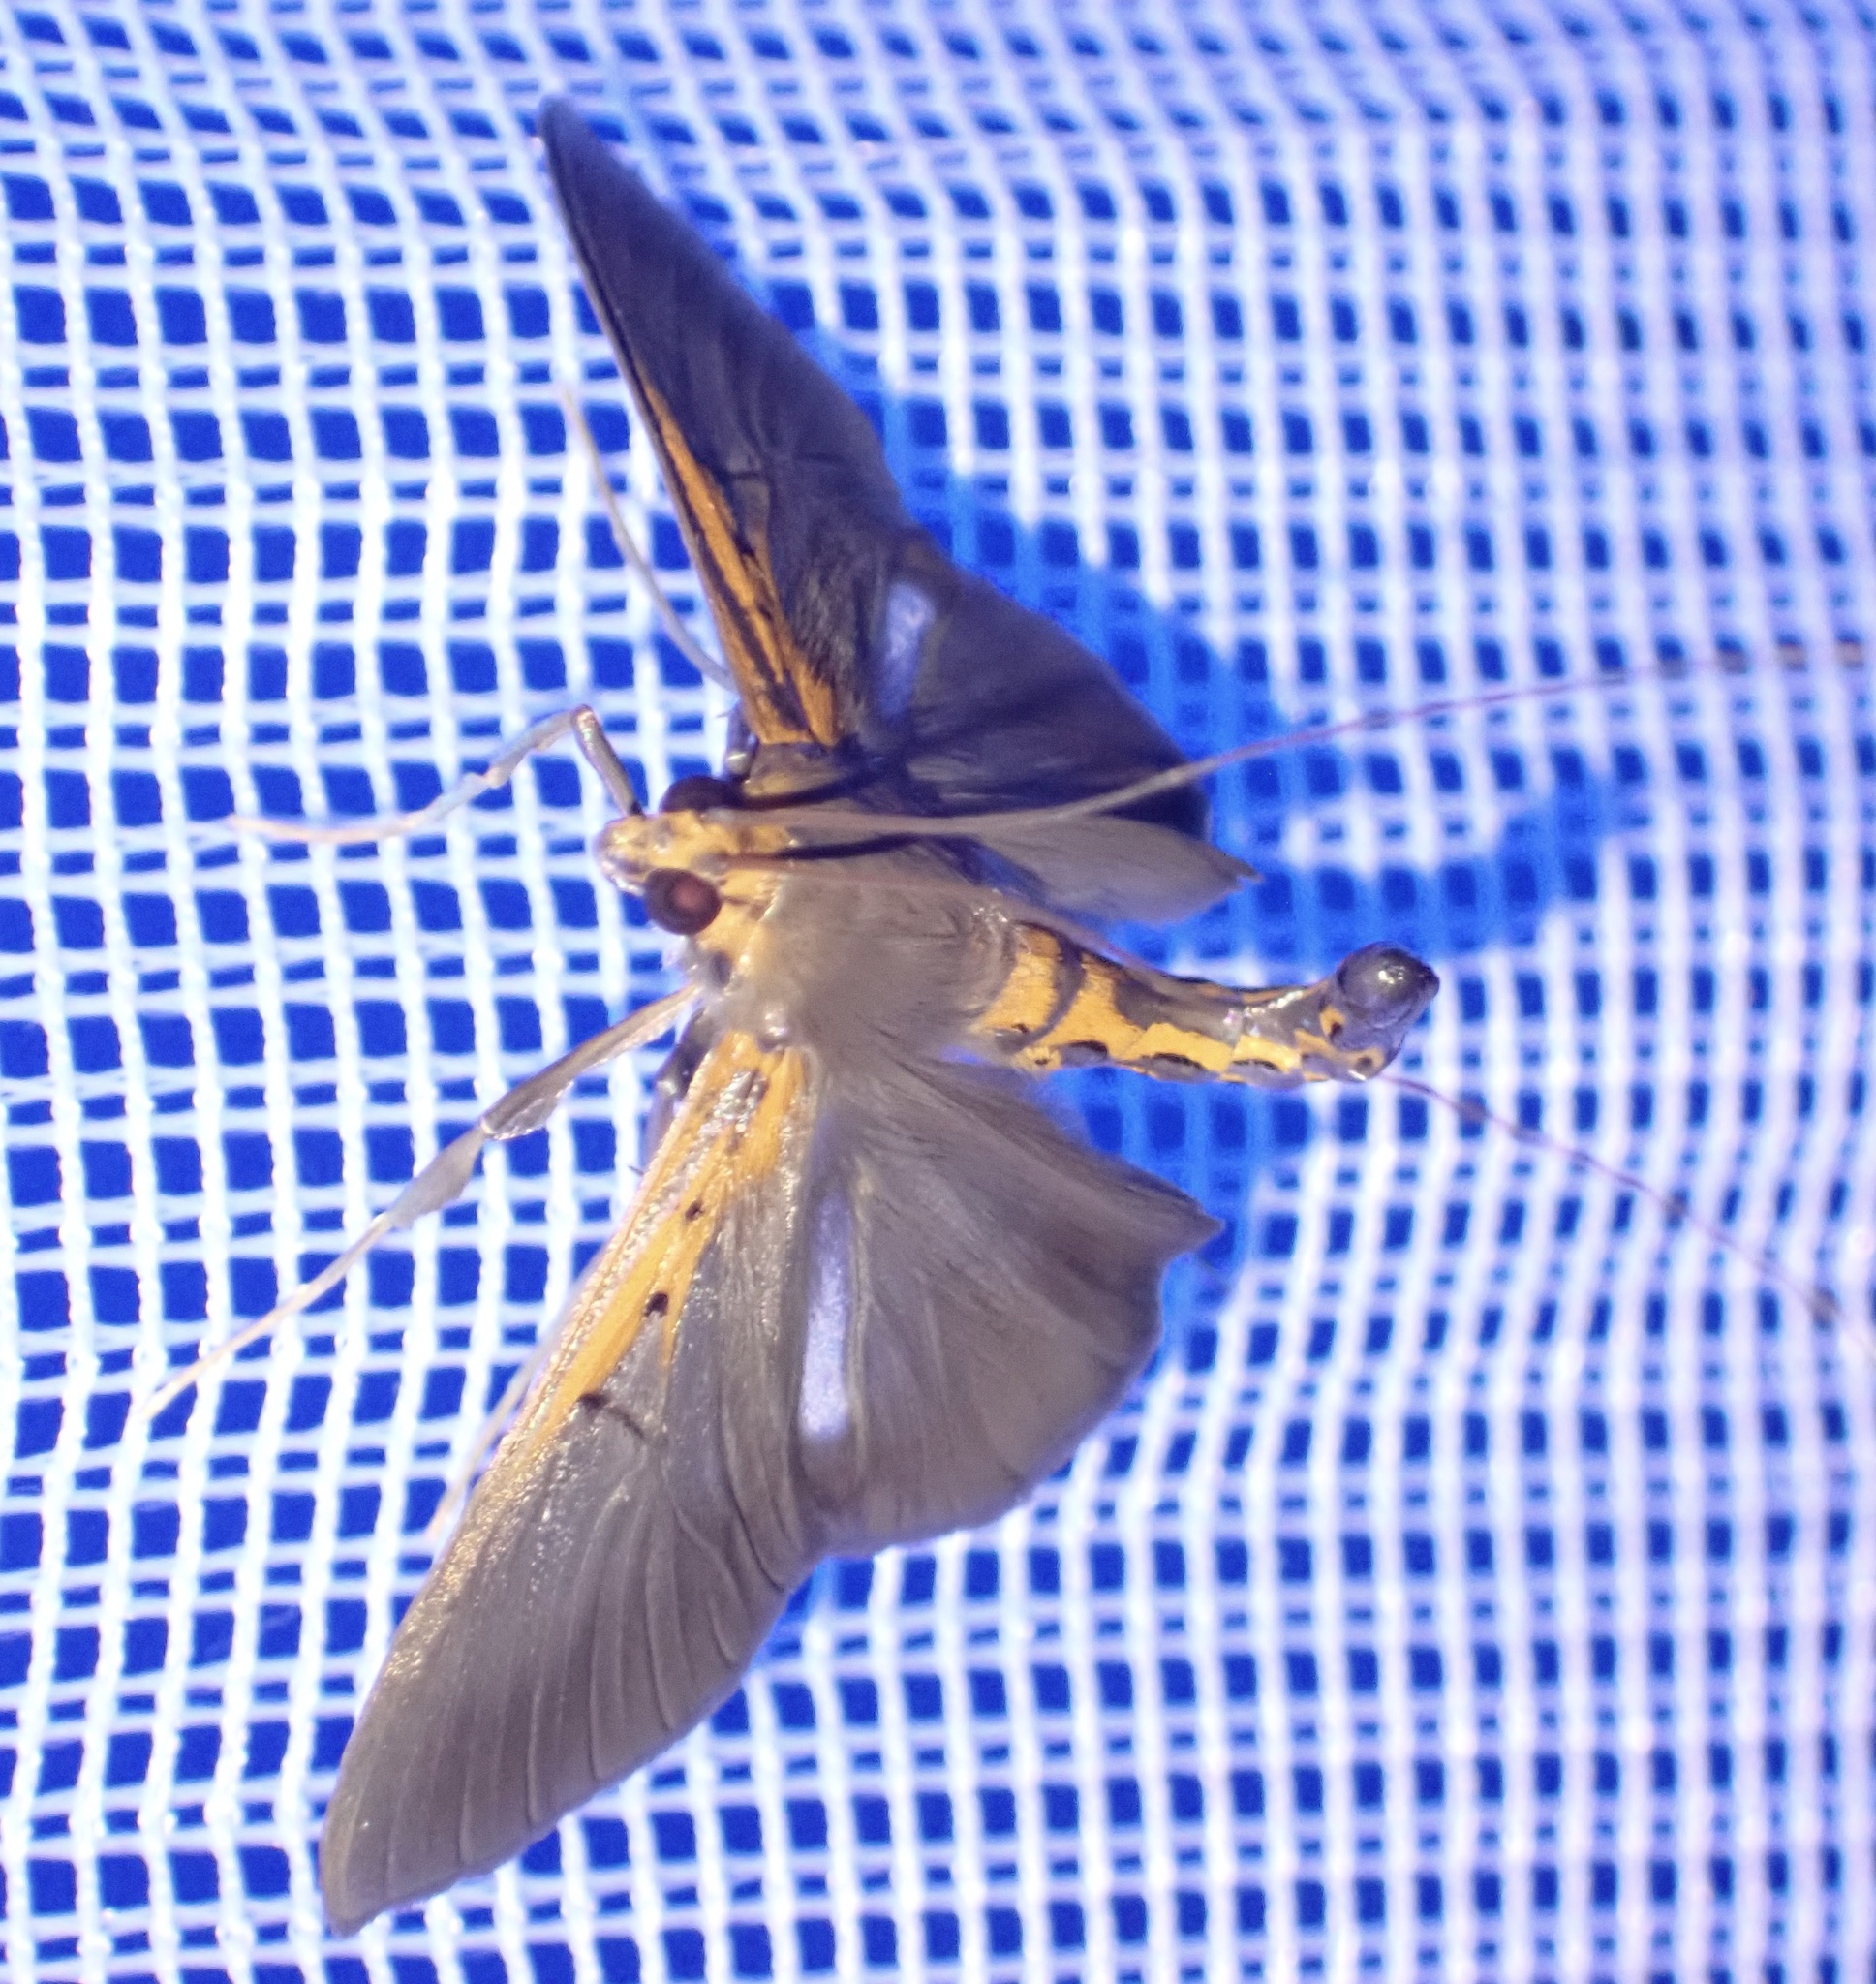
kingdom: Animalia
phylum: Arthropoda
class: Insecta
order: Lepidoptera
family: Crambidae
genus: Filodes
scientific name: Filodes costivitralis
